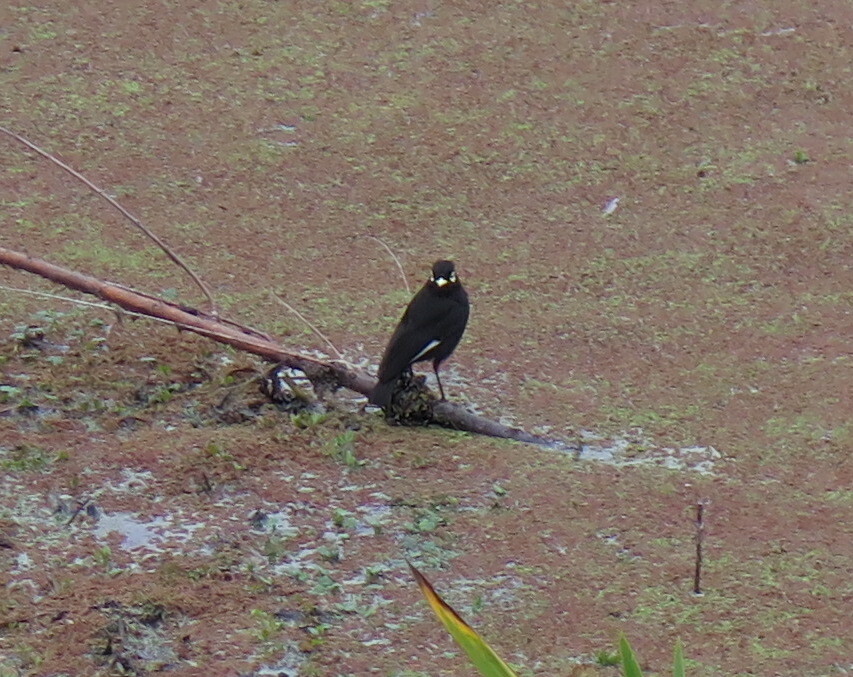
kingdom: Animalia
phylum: Chordata
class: Aves
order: Passeriformes
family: Tyrannidae
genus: Hymenops
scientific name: Hymenops perspicillatus
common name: Spectacled tyrant
